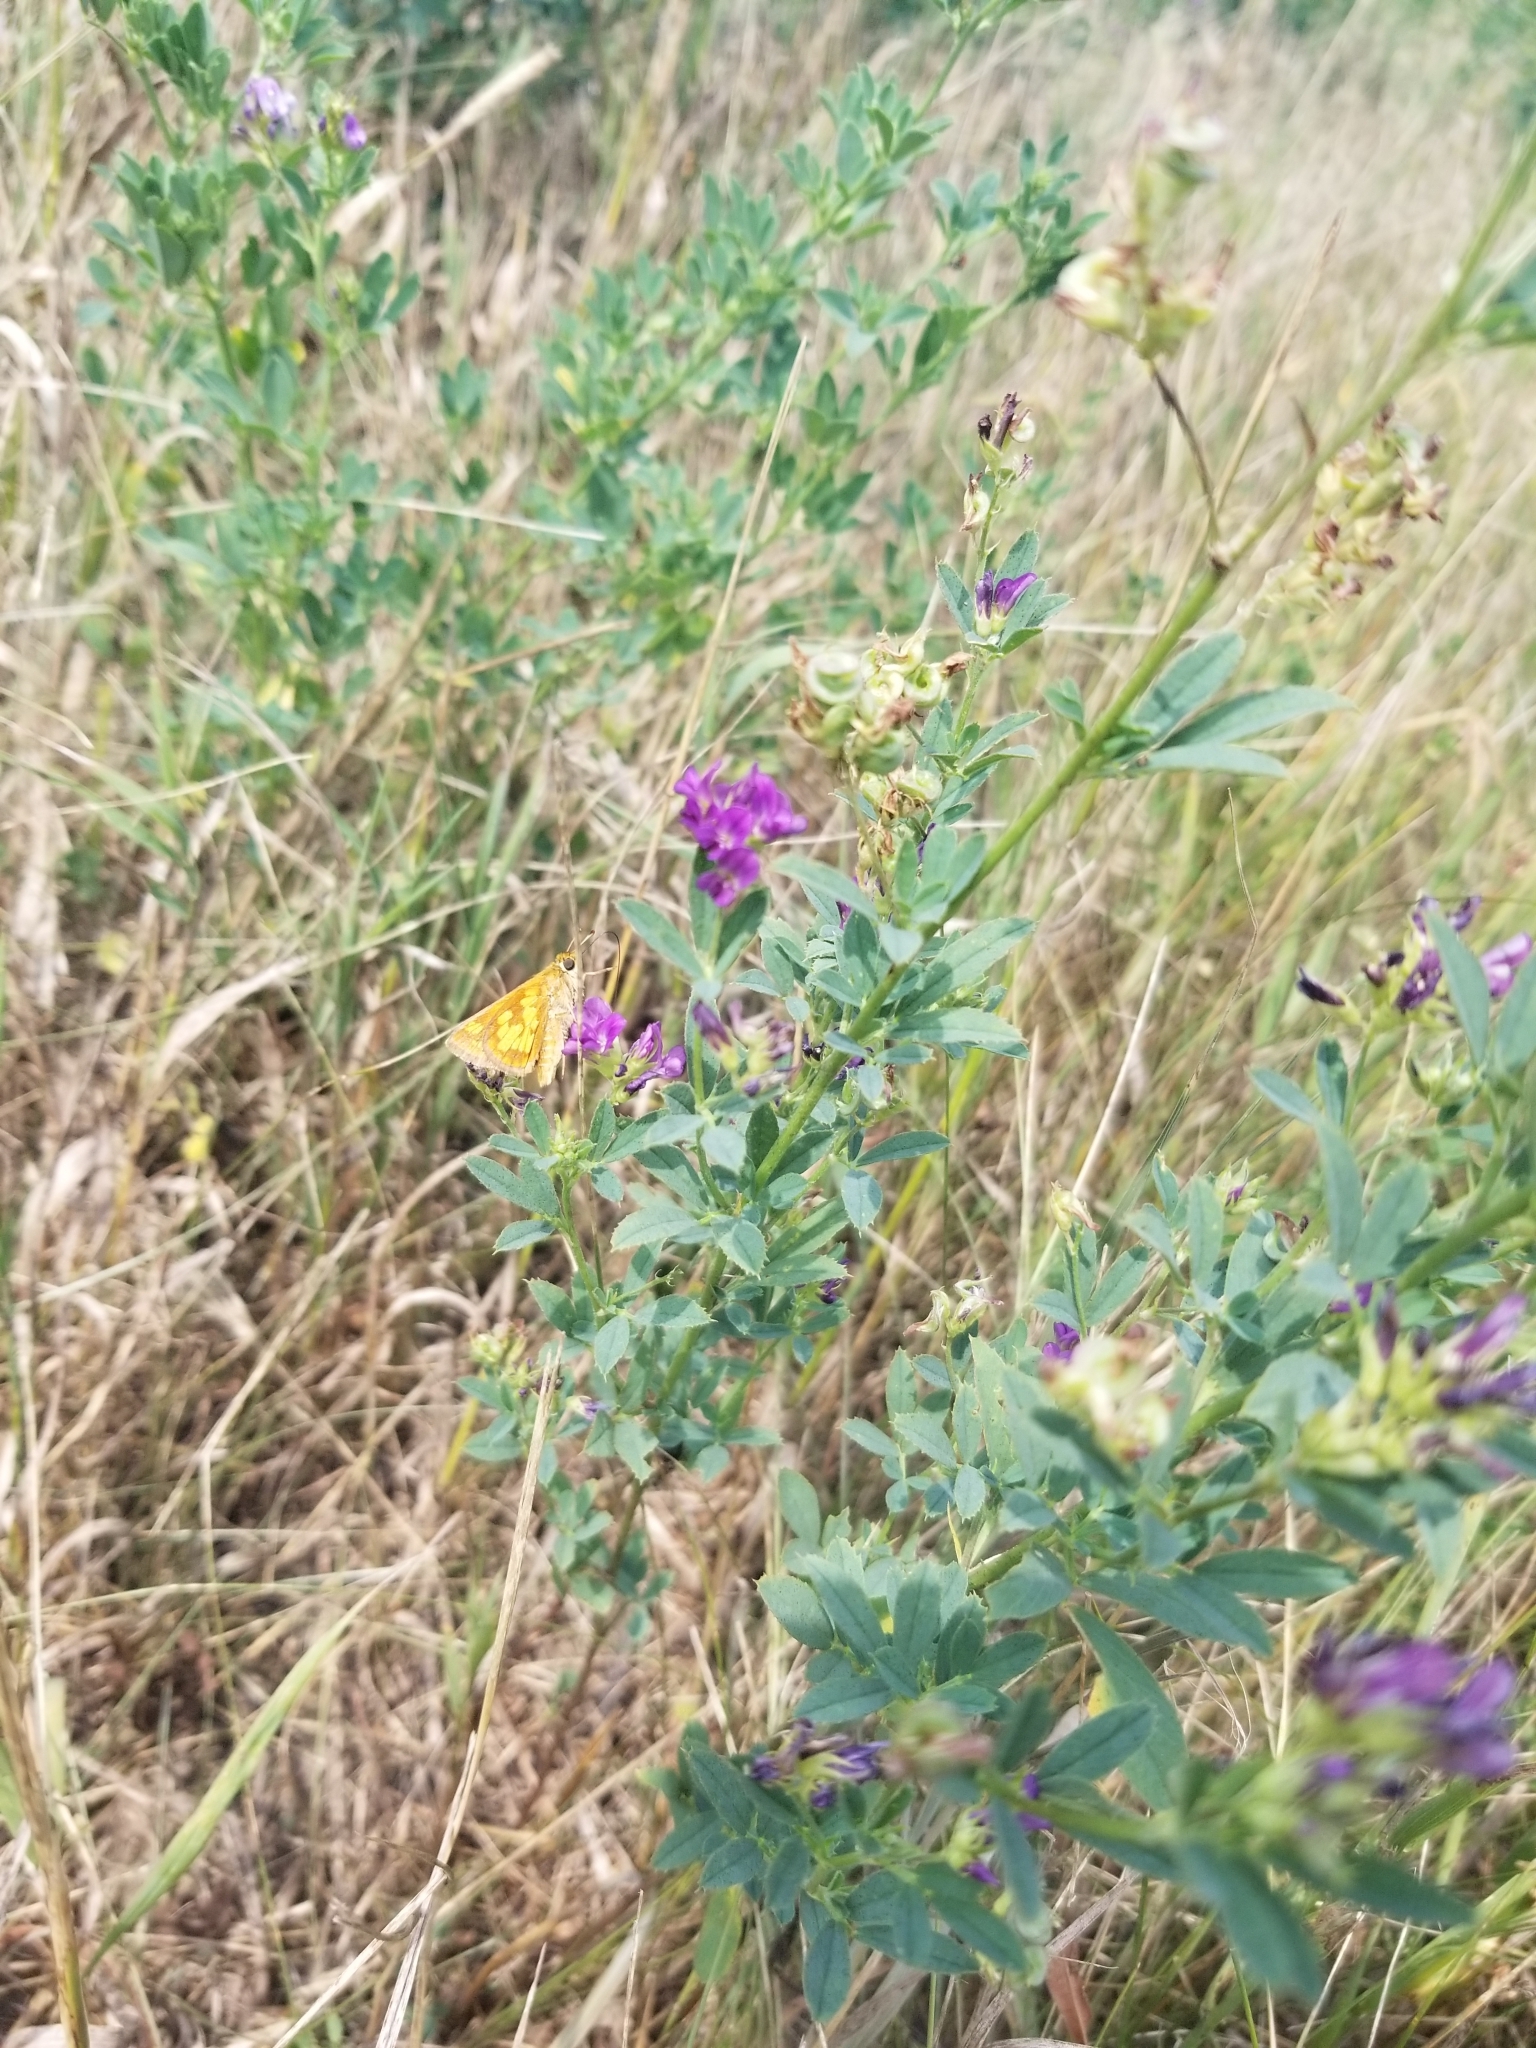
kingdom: Animalia
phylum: Arthropoda
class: Insecta
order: Lepidoptera
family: Hesperiidae
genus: Polites
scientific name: Polites coras
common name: Peck's skipper
